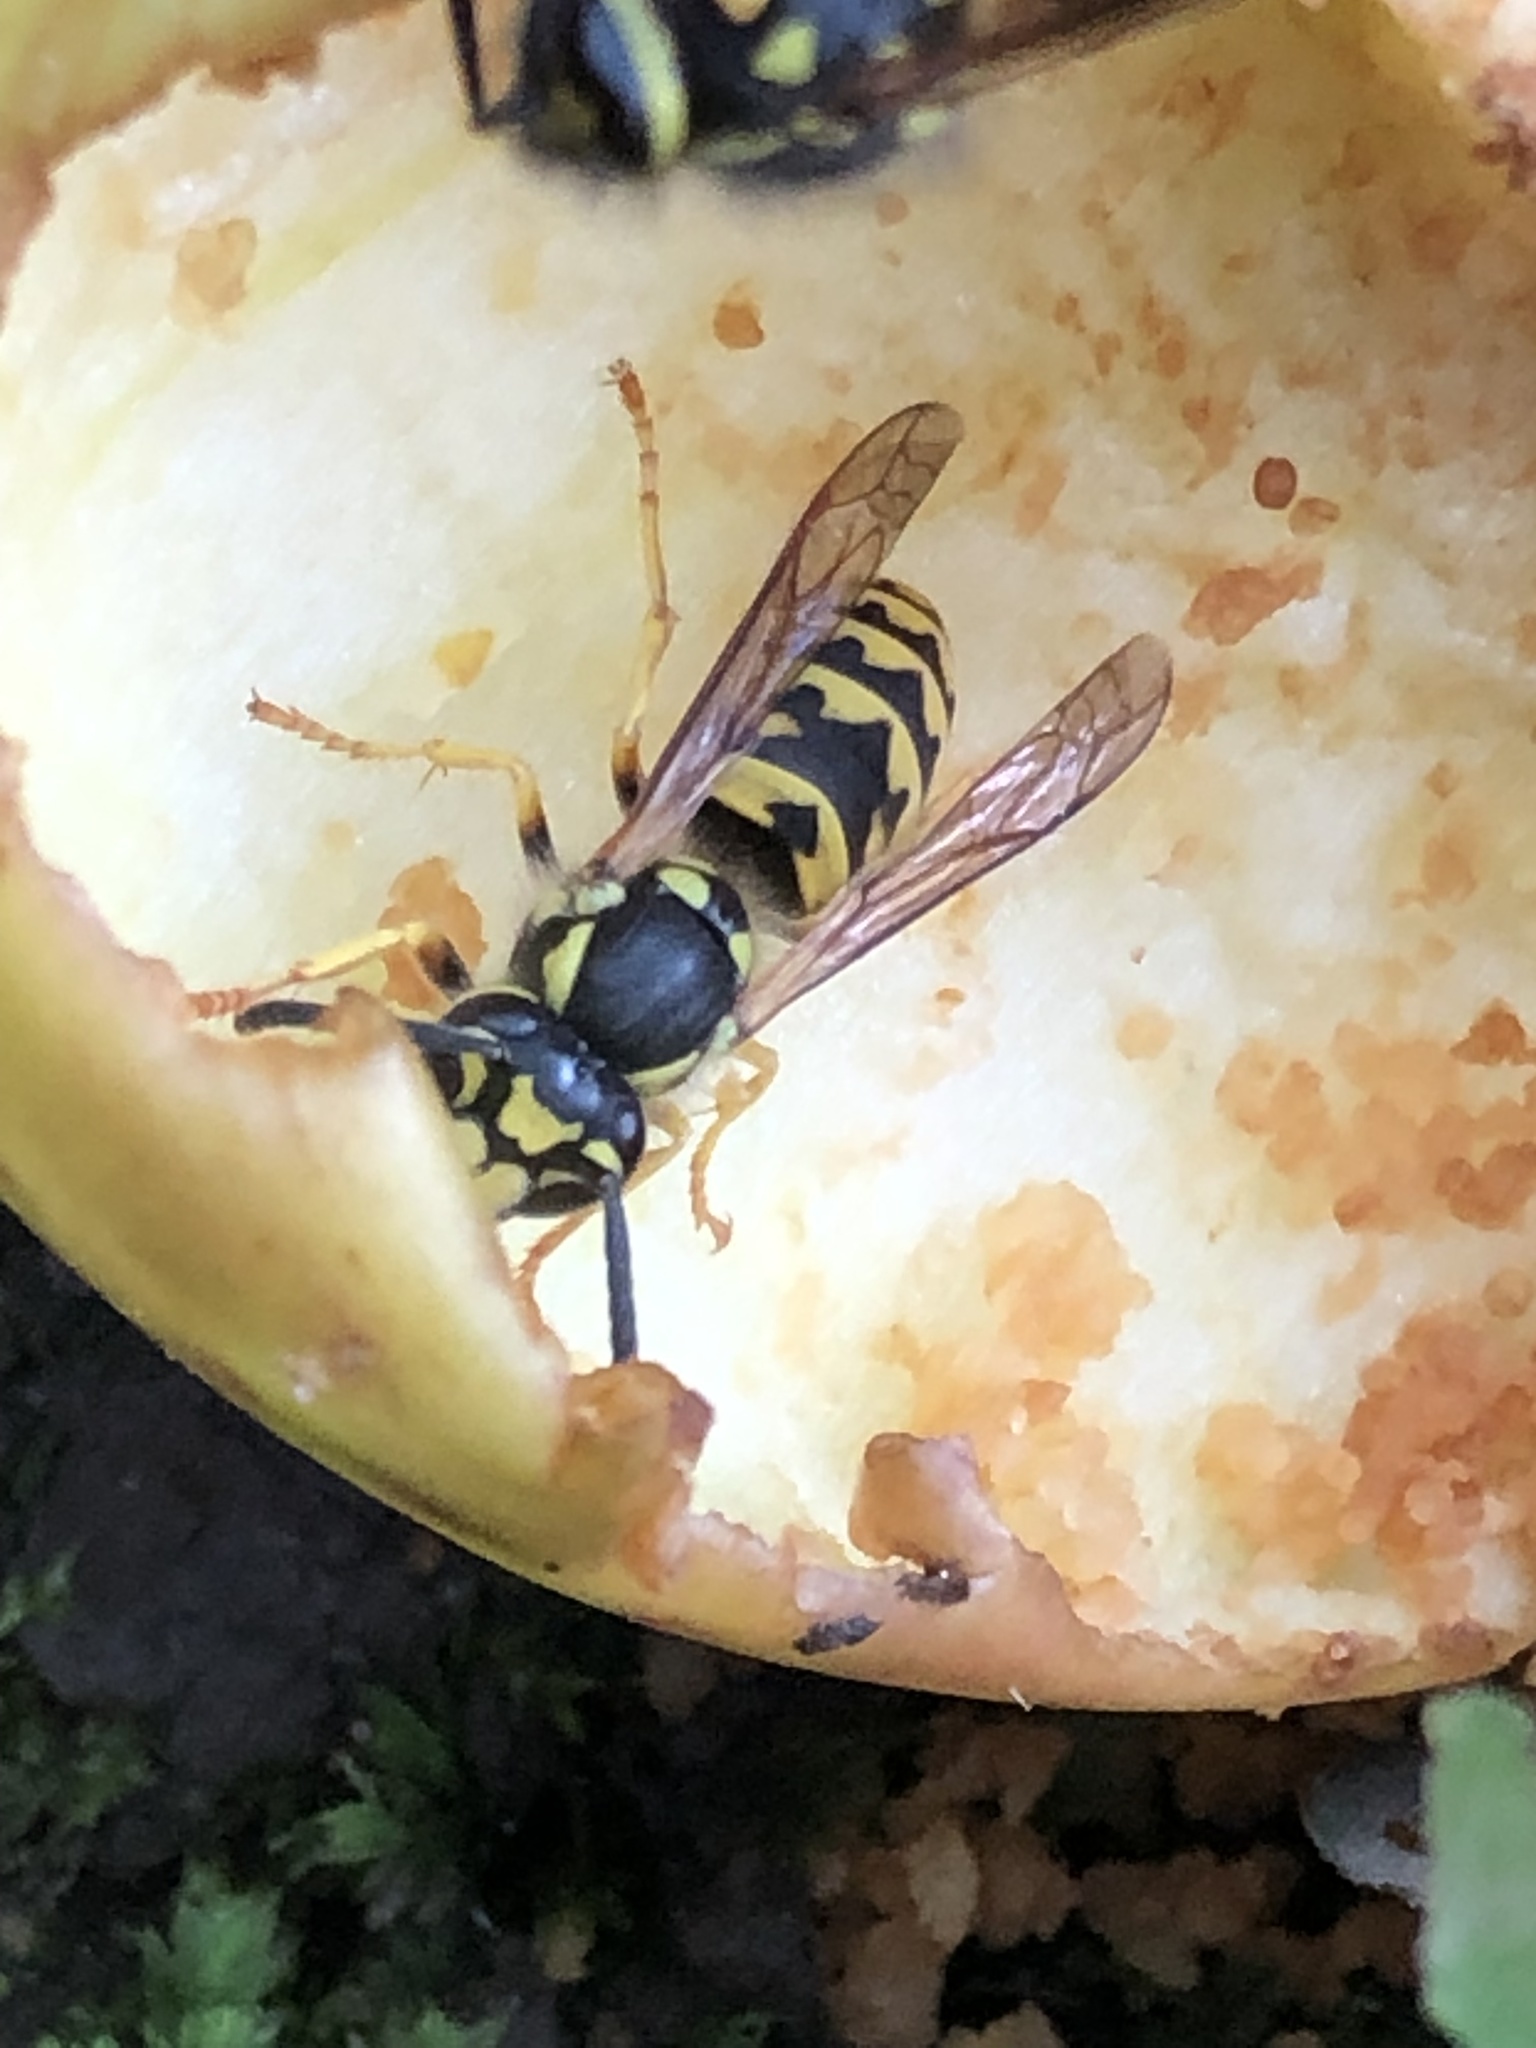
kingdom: Animalia
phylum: Arthropoda
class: Insecta
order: Hymenoptera
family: Vespidae
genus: Vespula
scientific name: Vespula germanica
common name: German wasp
